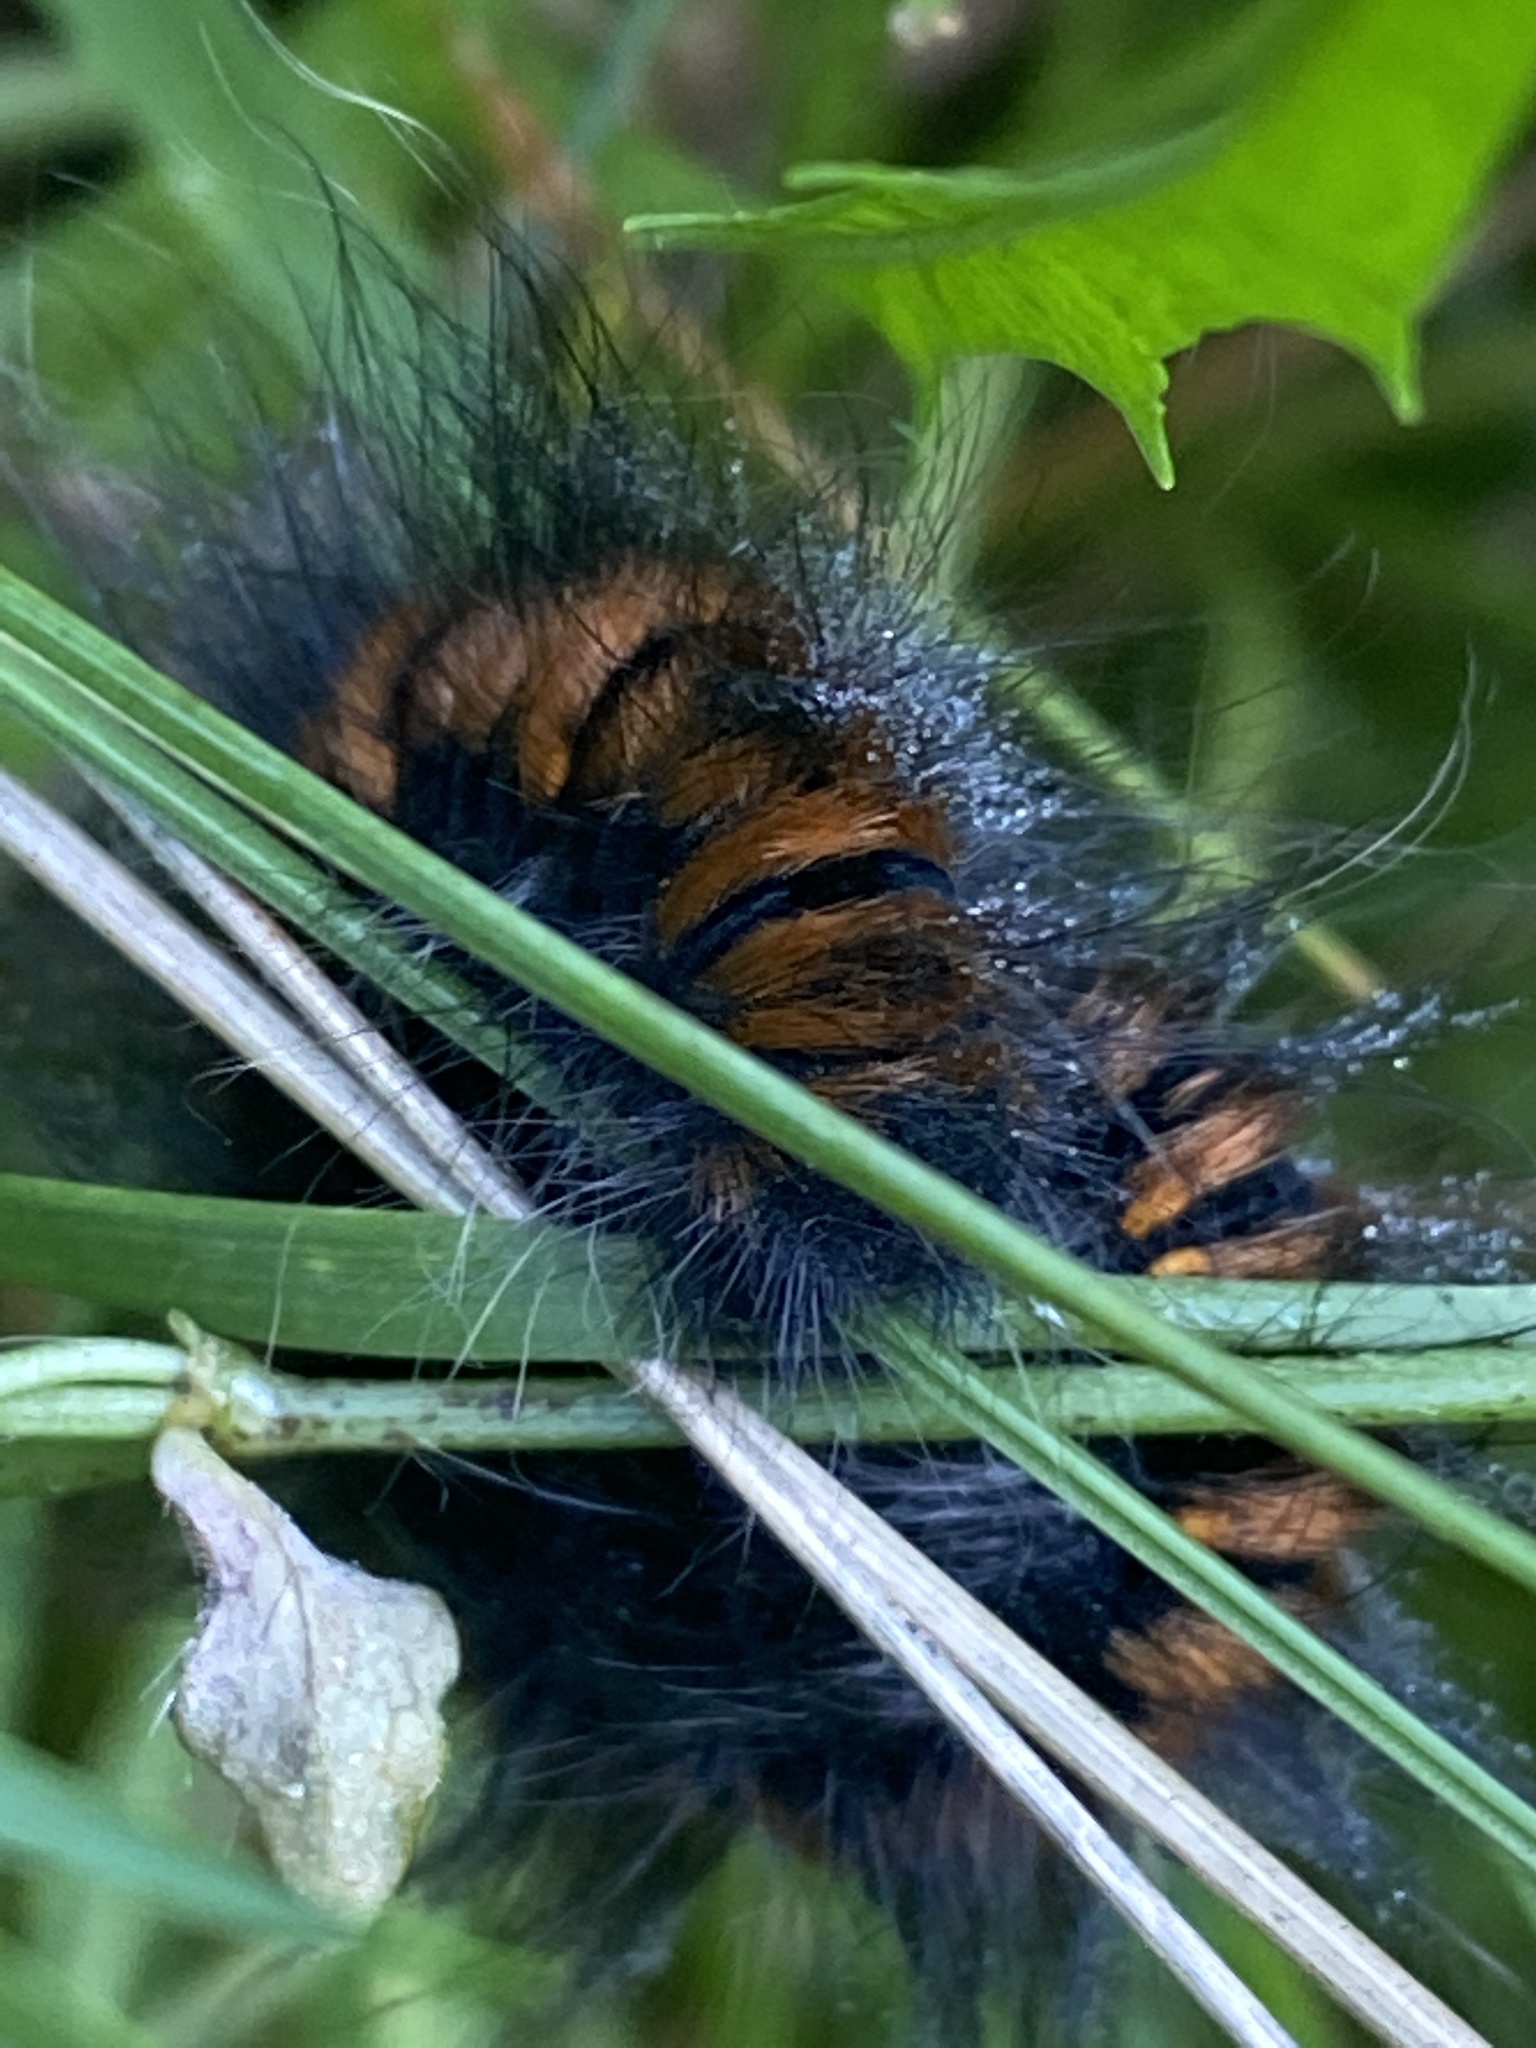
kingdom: Animalia
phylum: Arthropoda
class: Insecta
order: Lepidoptera
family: Lasiocampidae
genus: Macrothylacia
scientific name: Macrothylacia rubi
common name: Fox moth
